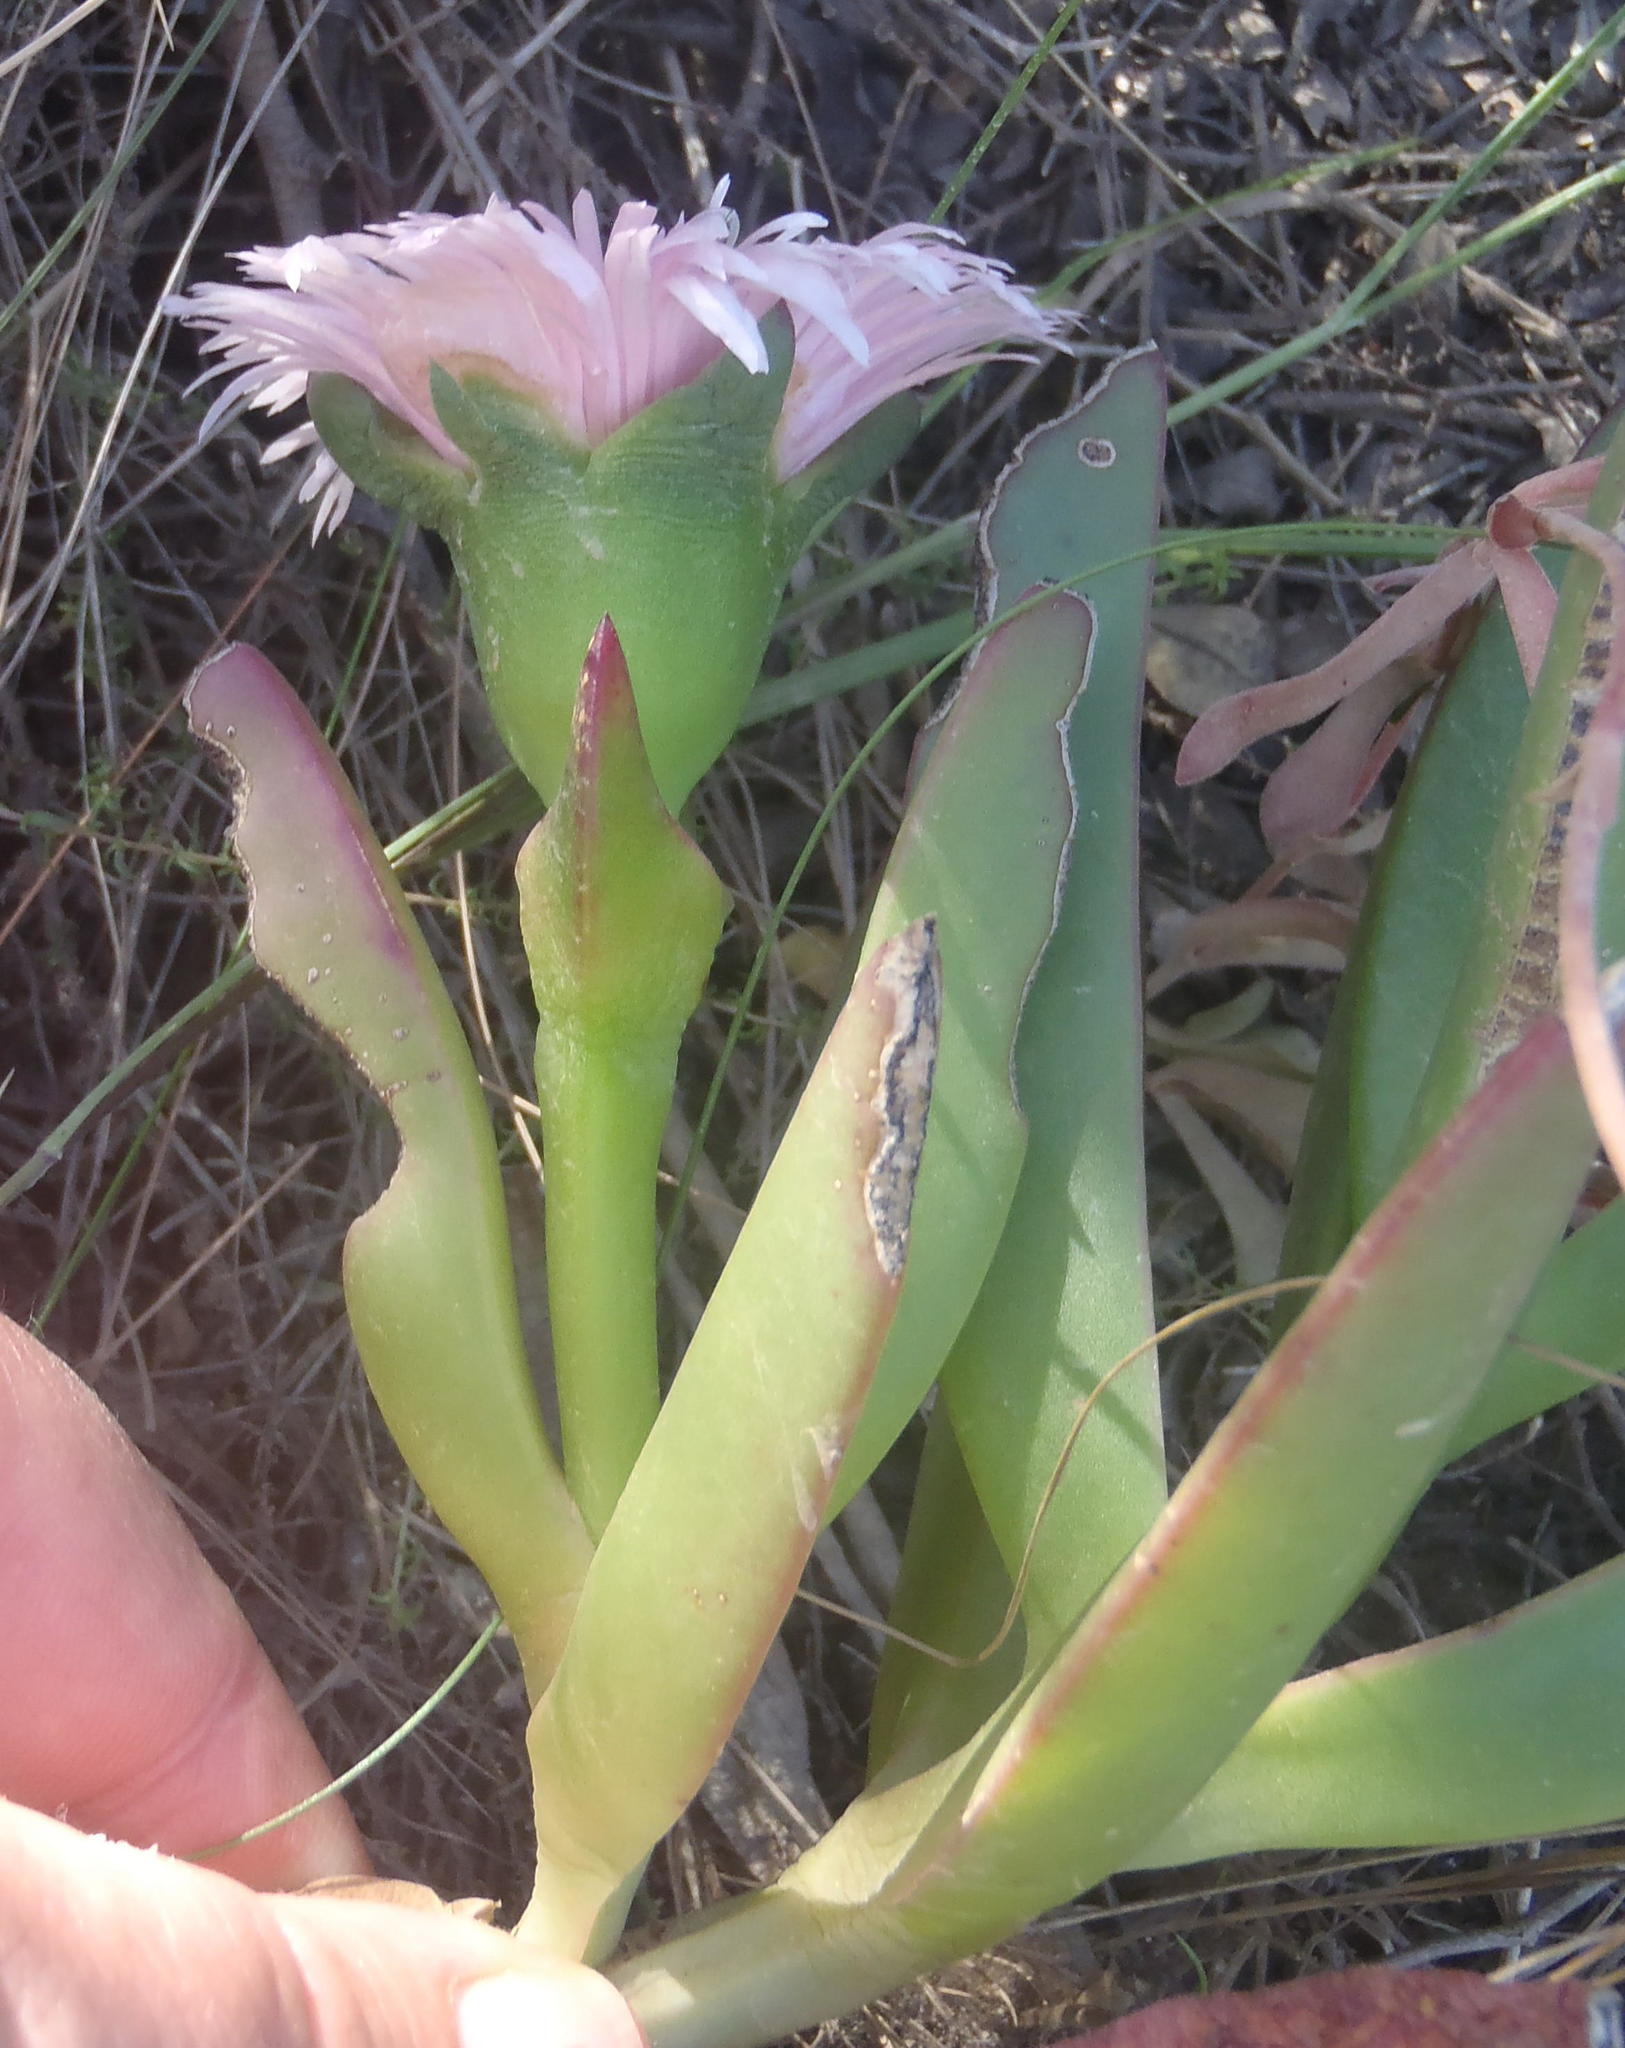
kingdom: Plantae
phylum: Tracheophyta
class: Magnoliopsida
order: Caryophyllales
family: Aizoaceae
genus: Carpobrotus
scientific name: Carpobrotus mellei
